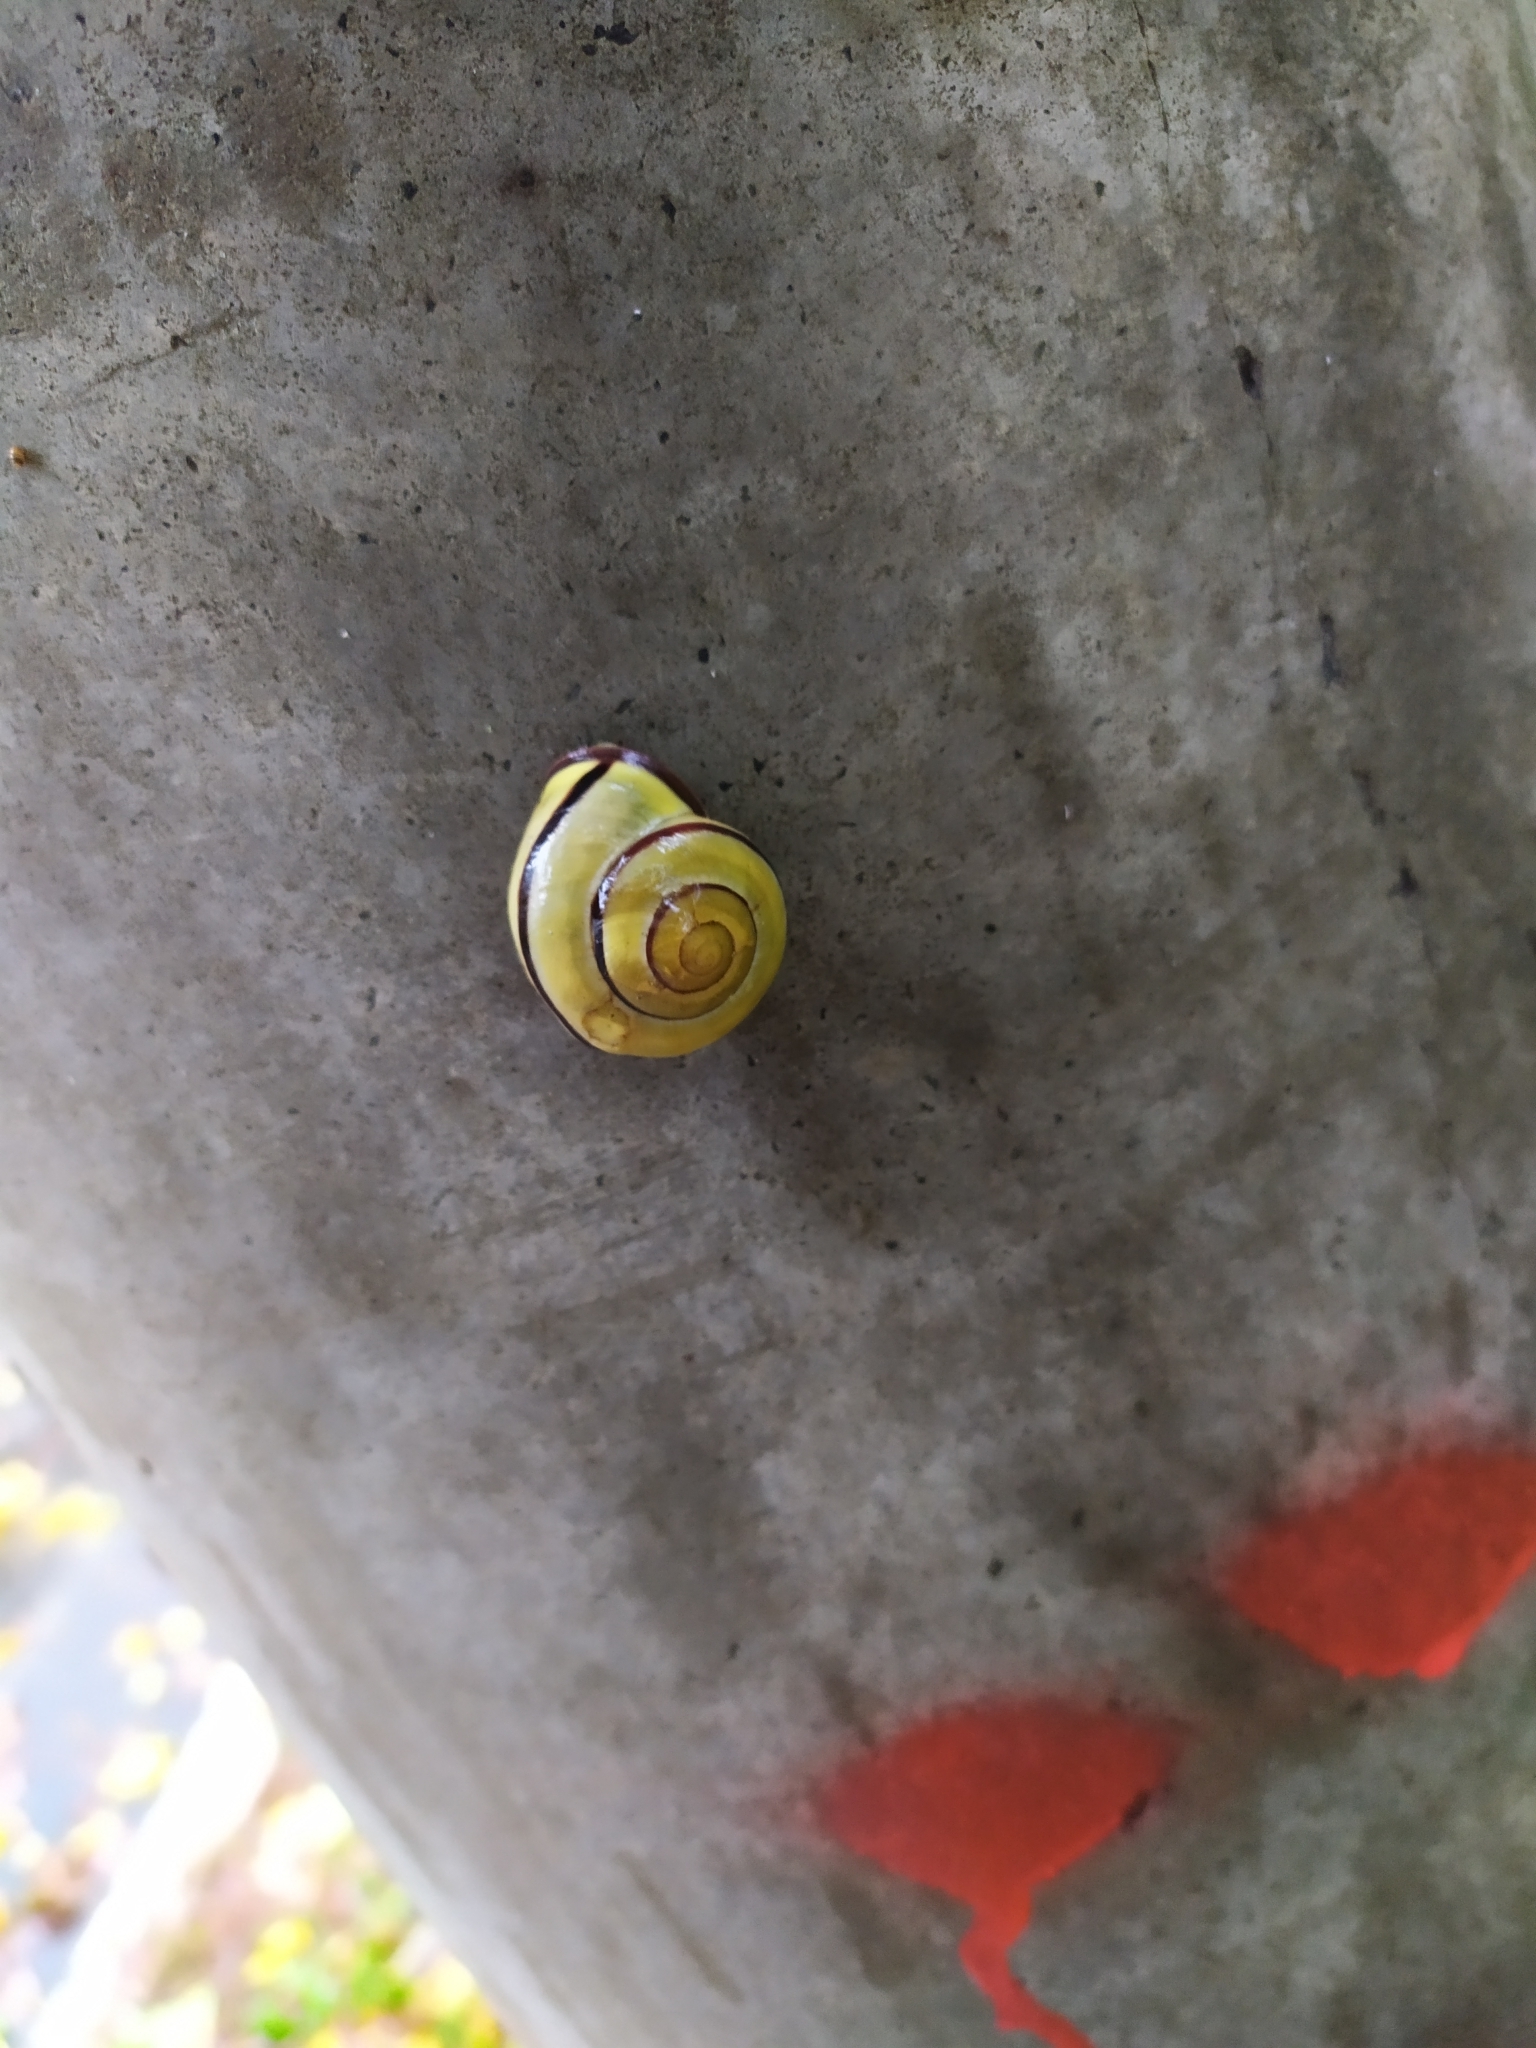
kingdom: Animalia
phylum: Mollusca
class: Gastropoda
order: Stylommatophora
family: Helicidae
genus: Cepaea
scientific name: Cepaea nemoralis
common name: Grovesnail
